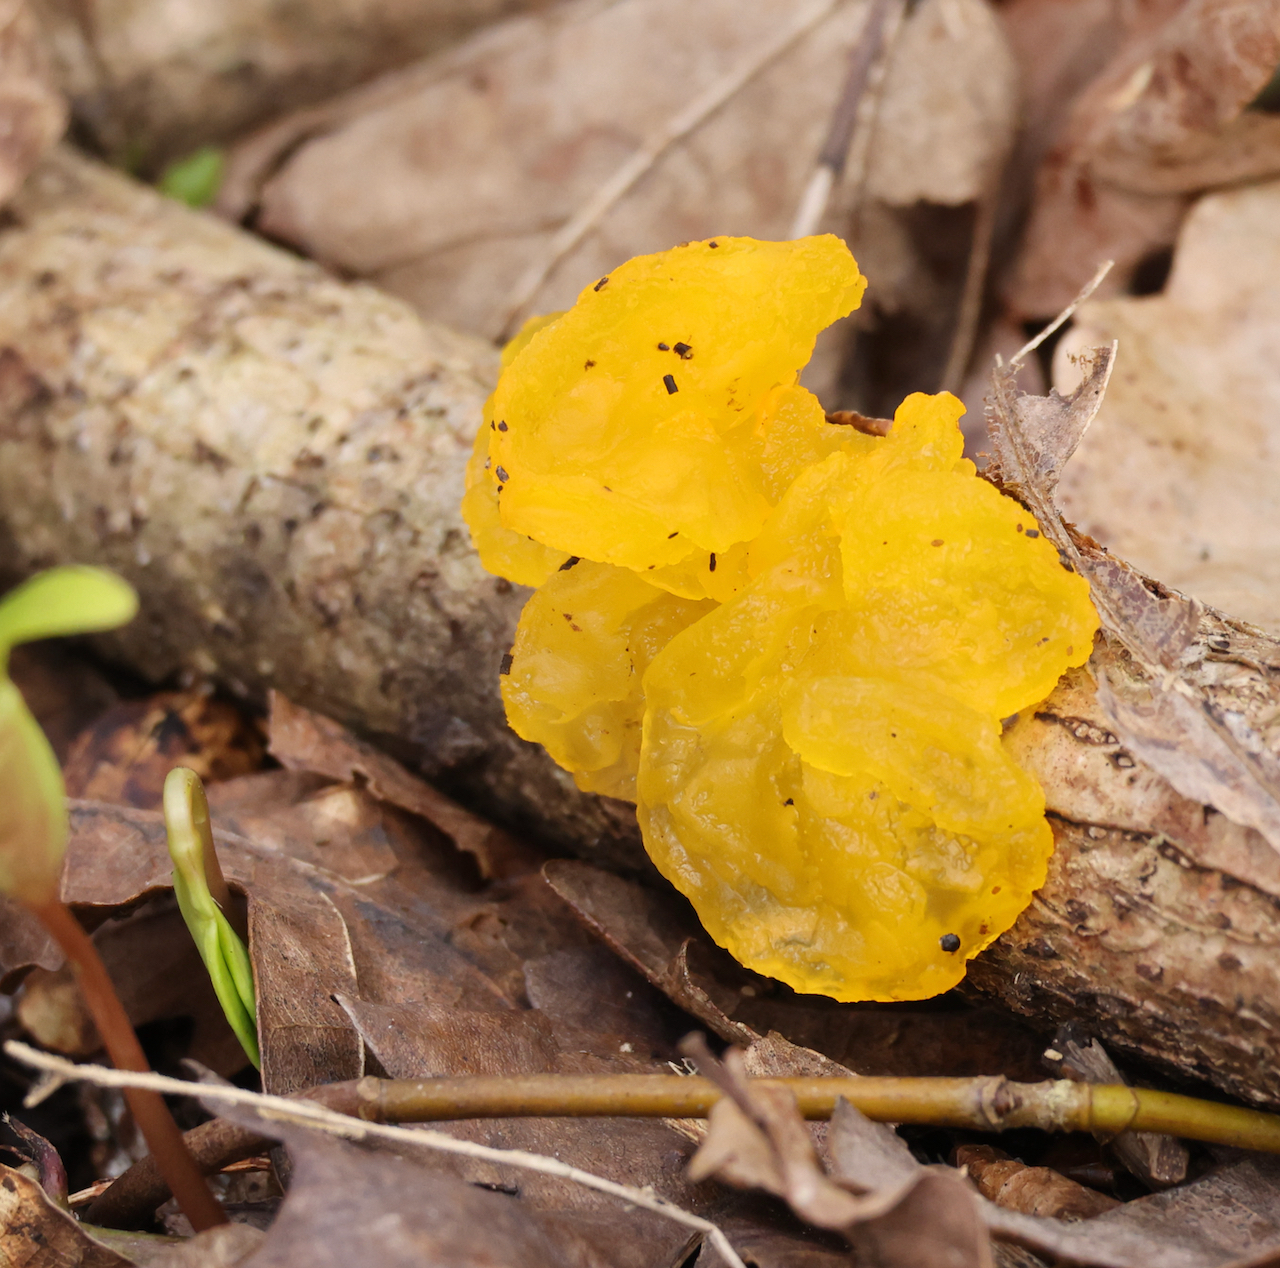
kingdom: Fungi
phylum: Basidiomycota
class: Tremellomycetes
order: Tremellales
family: Tremellaceae
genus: Tremella
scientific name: Tremella mesenterica
